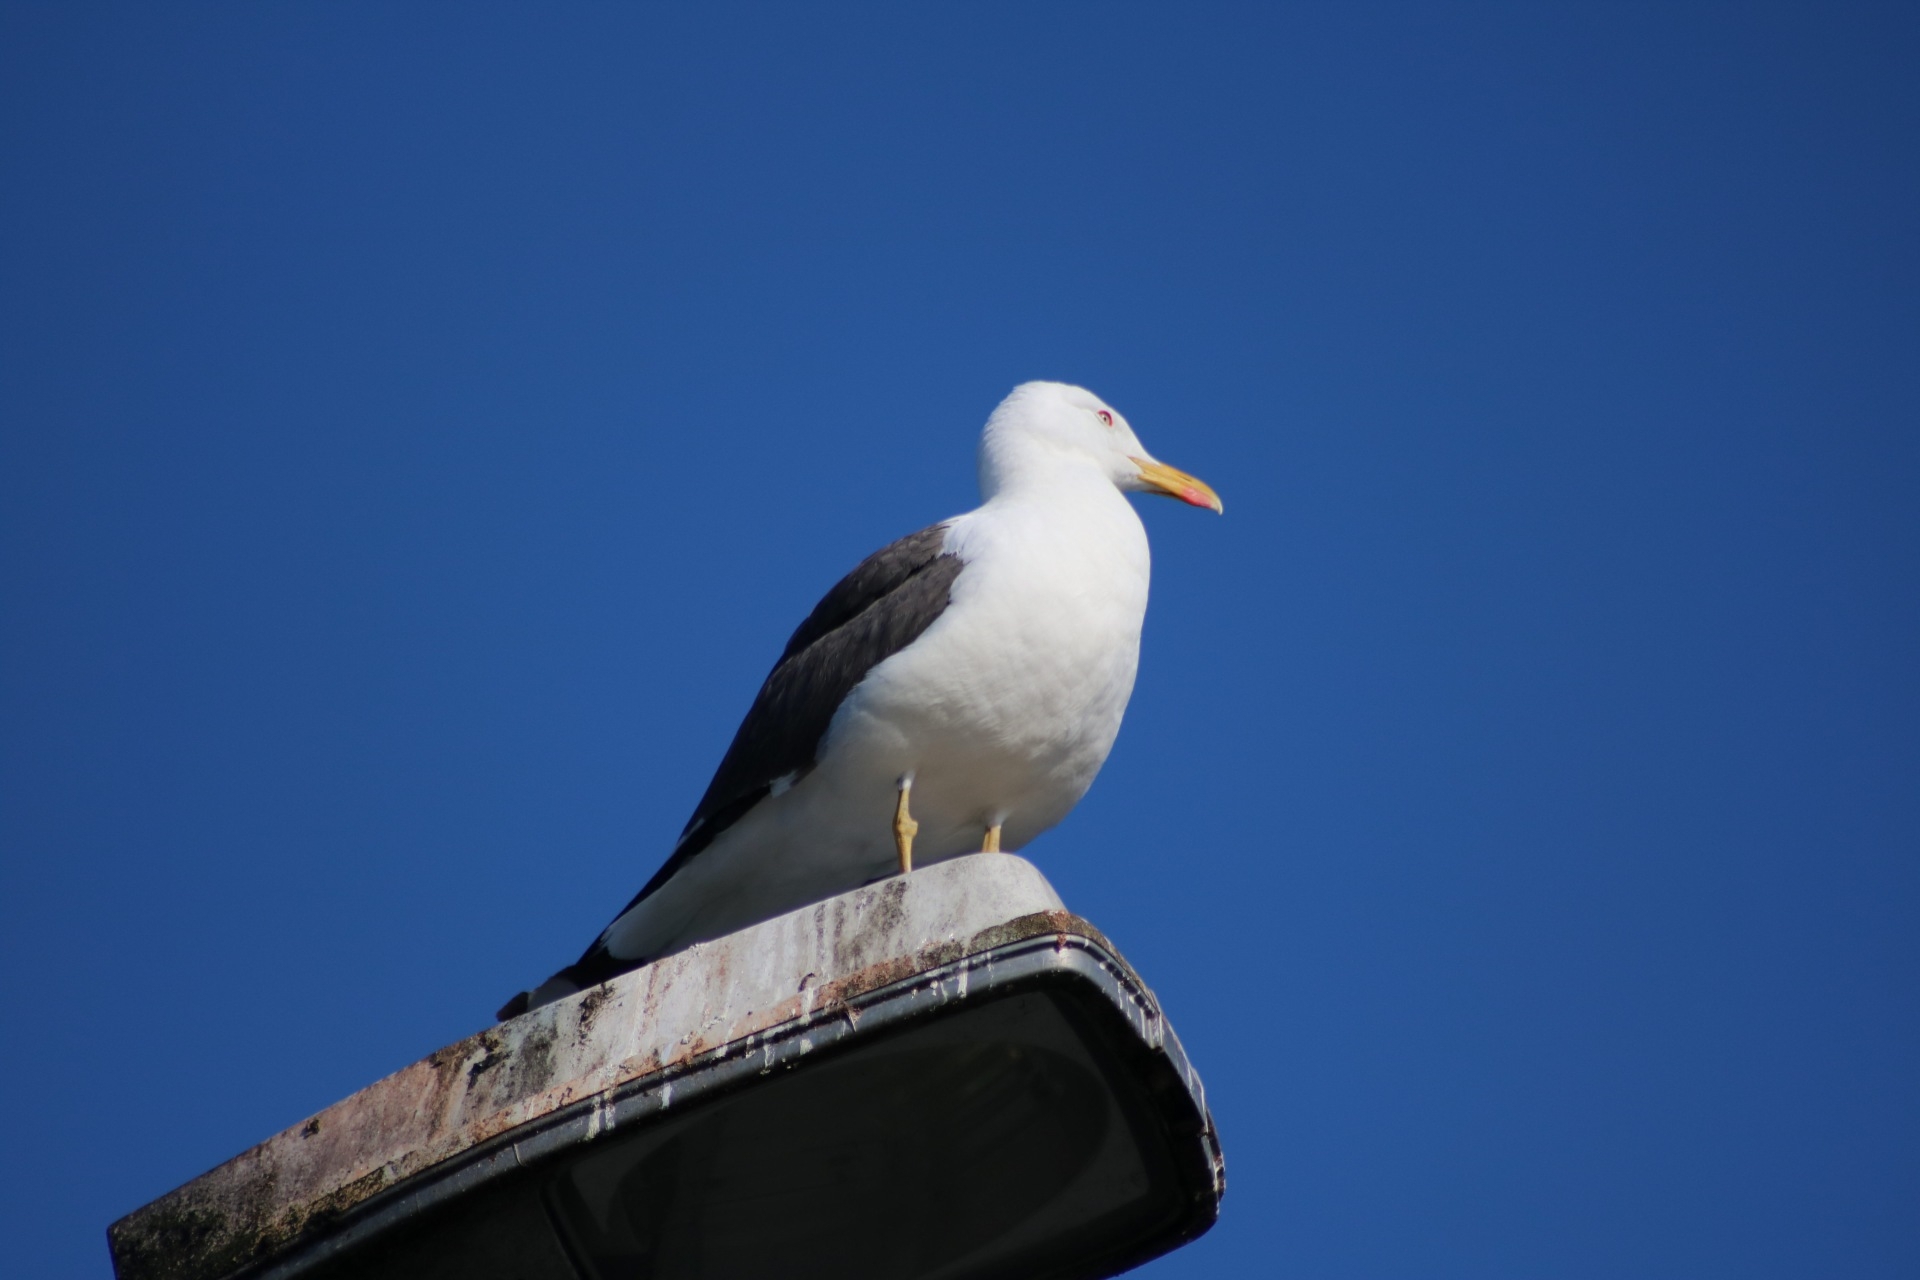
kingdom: Animalia
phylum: Chordata
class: Aves
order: Charadriiformes
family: Laridae
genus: Larus
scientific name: Larus fuscus
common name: Lesser black-backed gull
